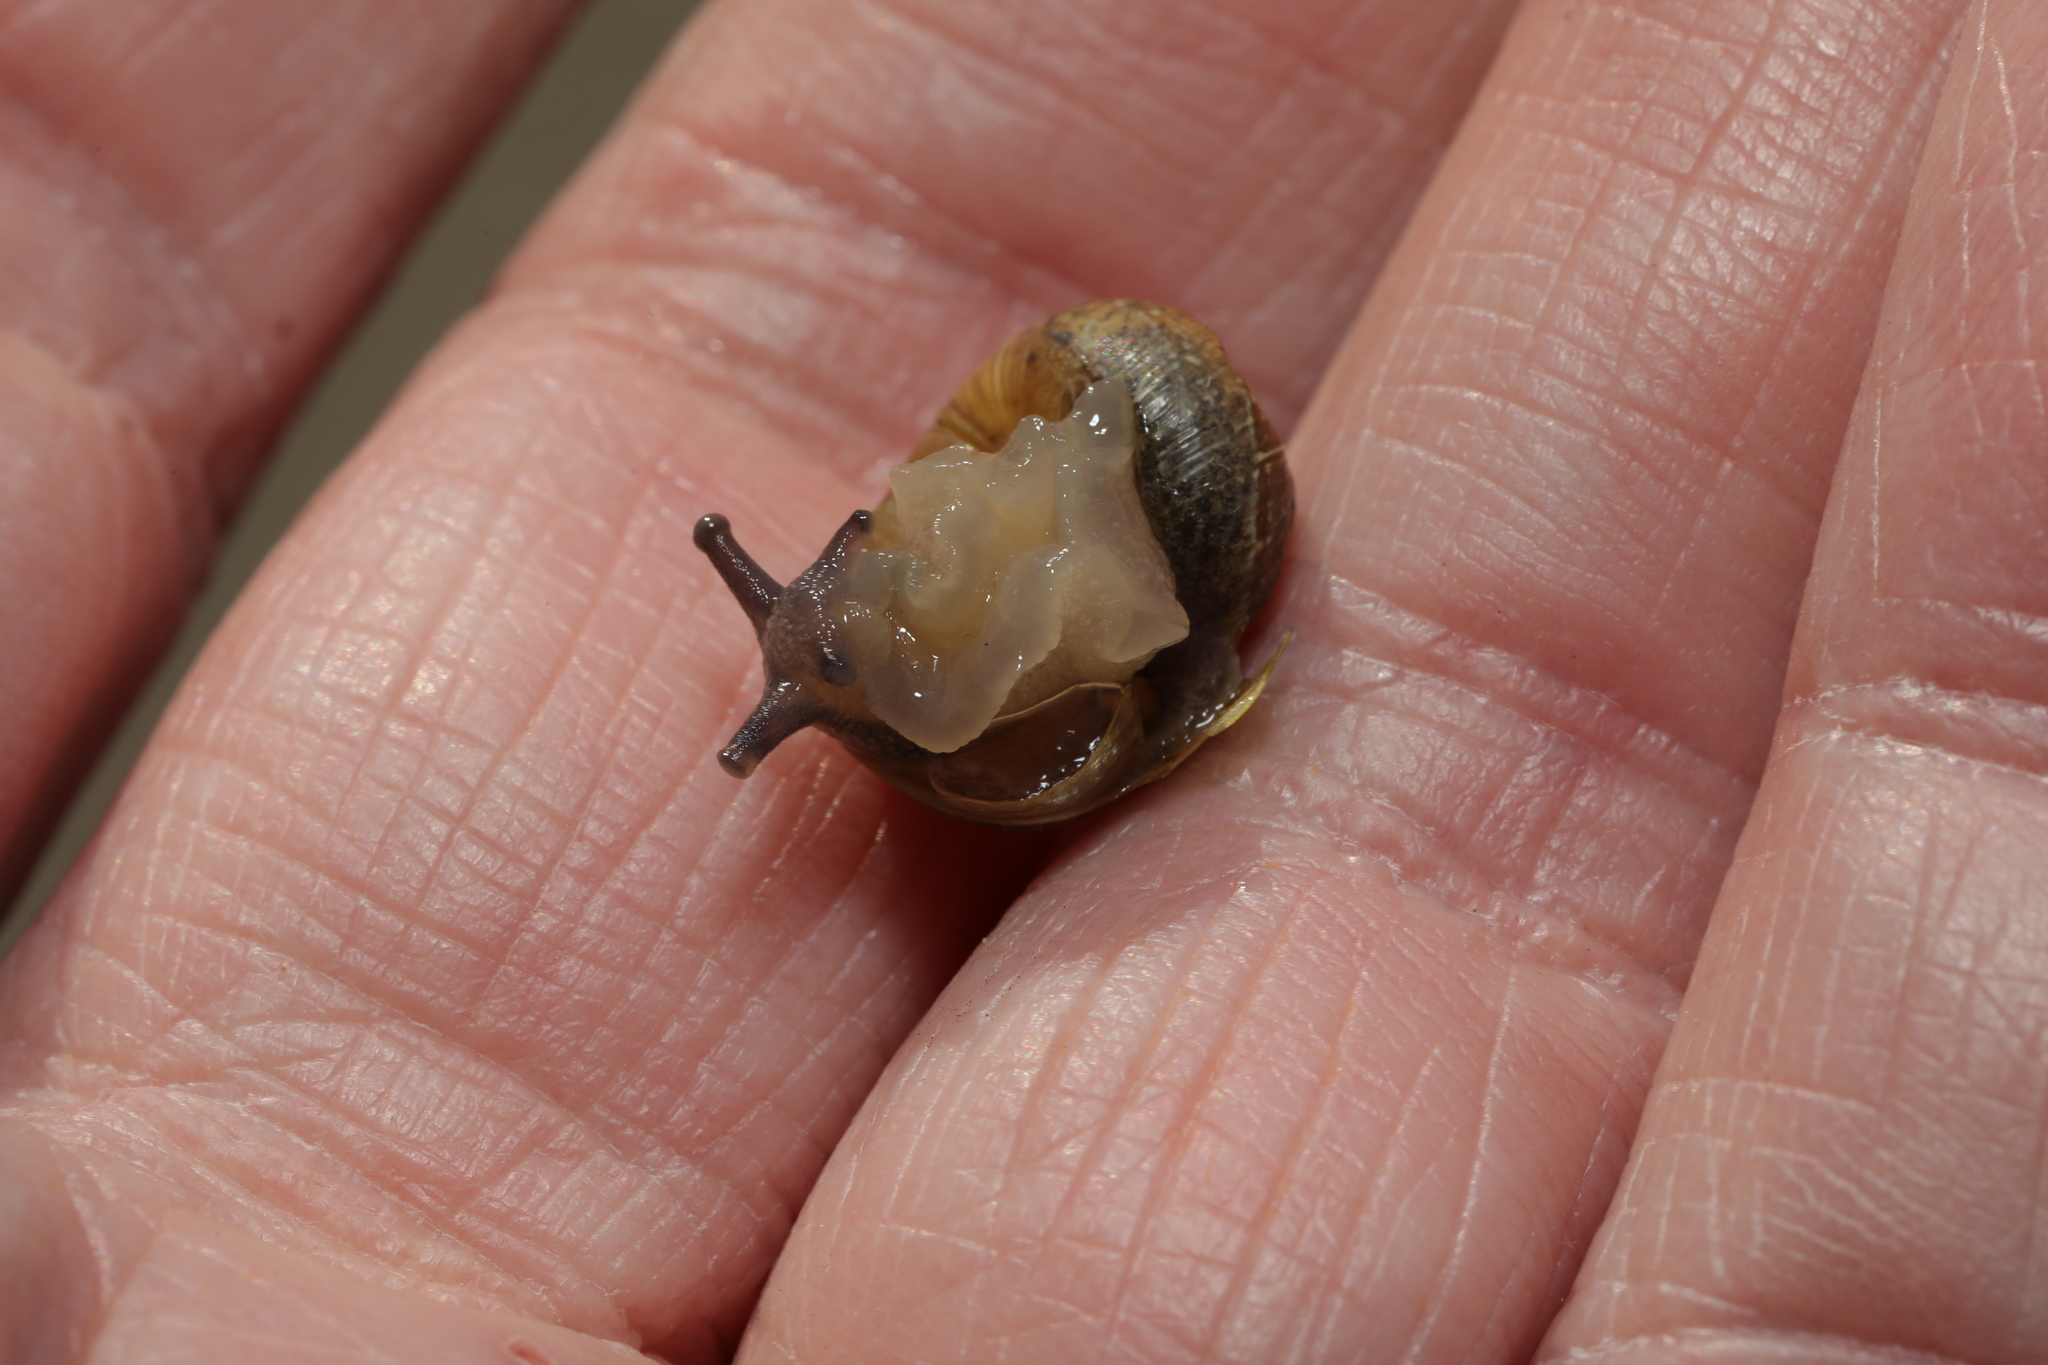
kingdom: Animalia
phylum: Mollusca
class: Gastropoda
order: Stylommatophora
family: Helicidae
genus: Cornu
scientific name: Cornu aspersum
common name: Brown garden snail
